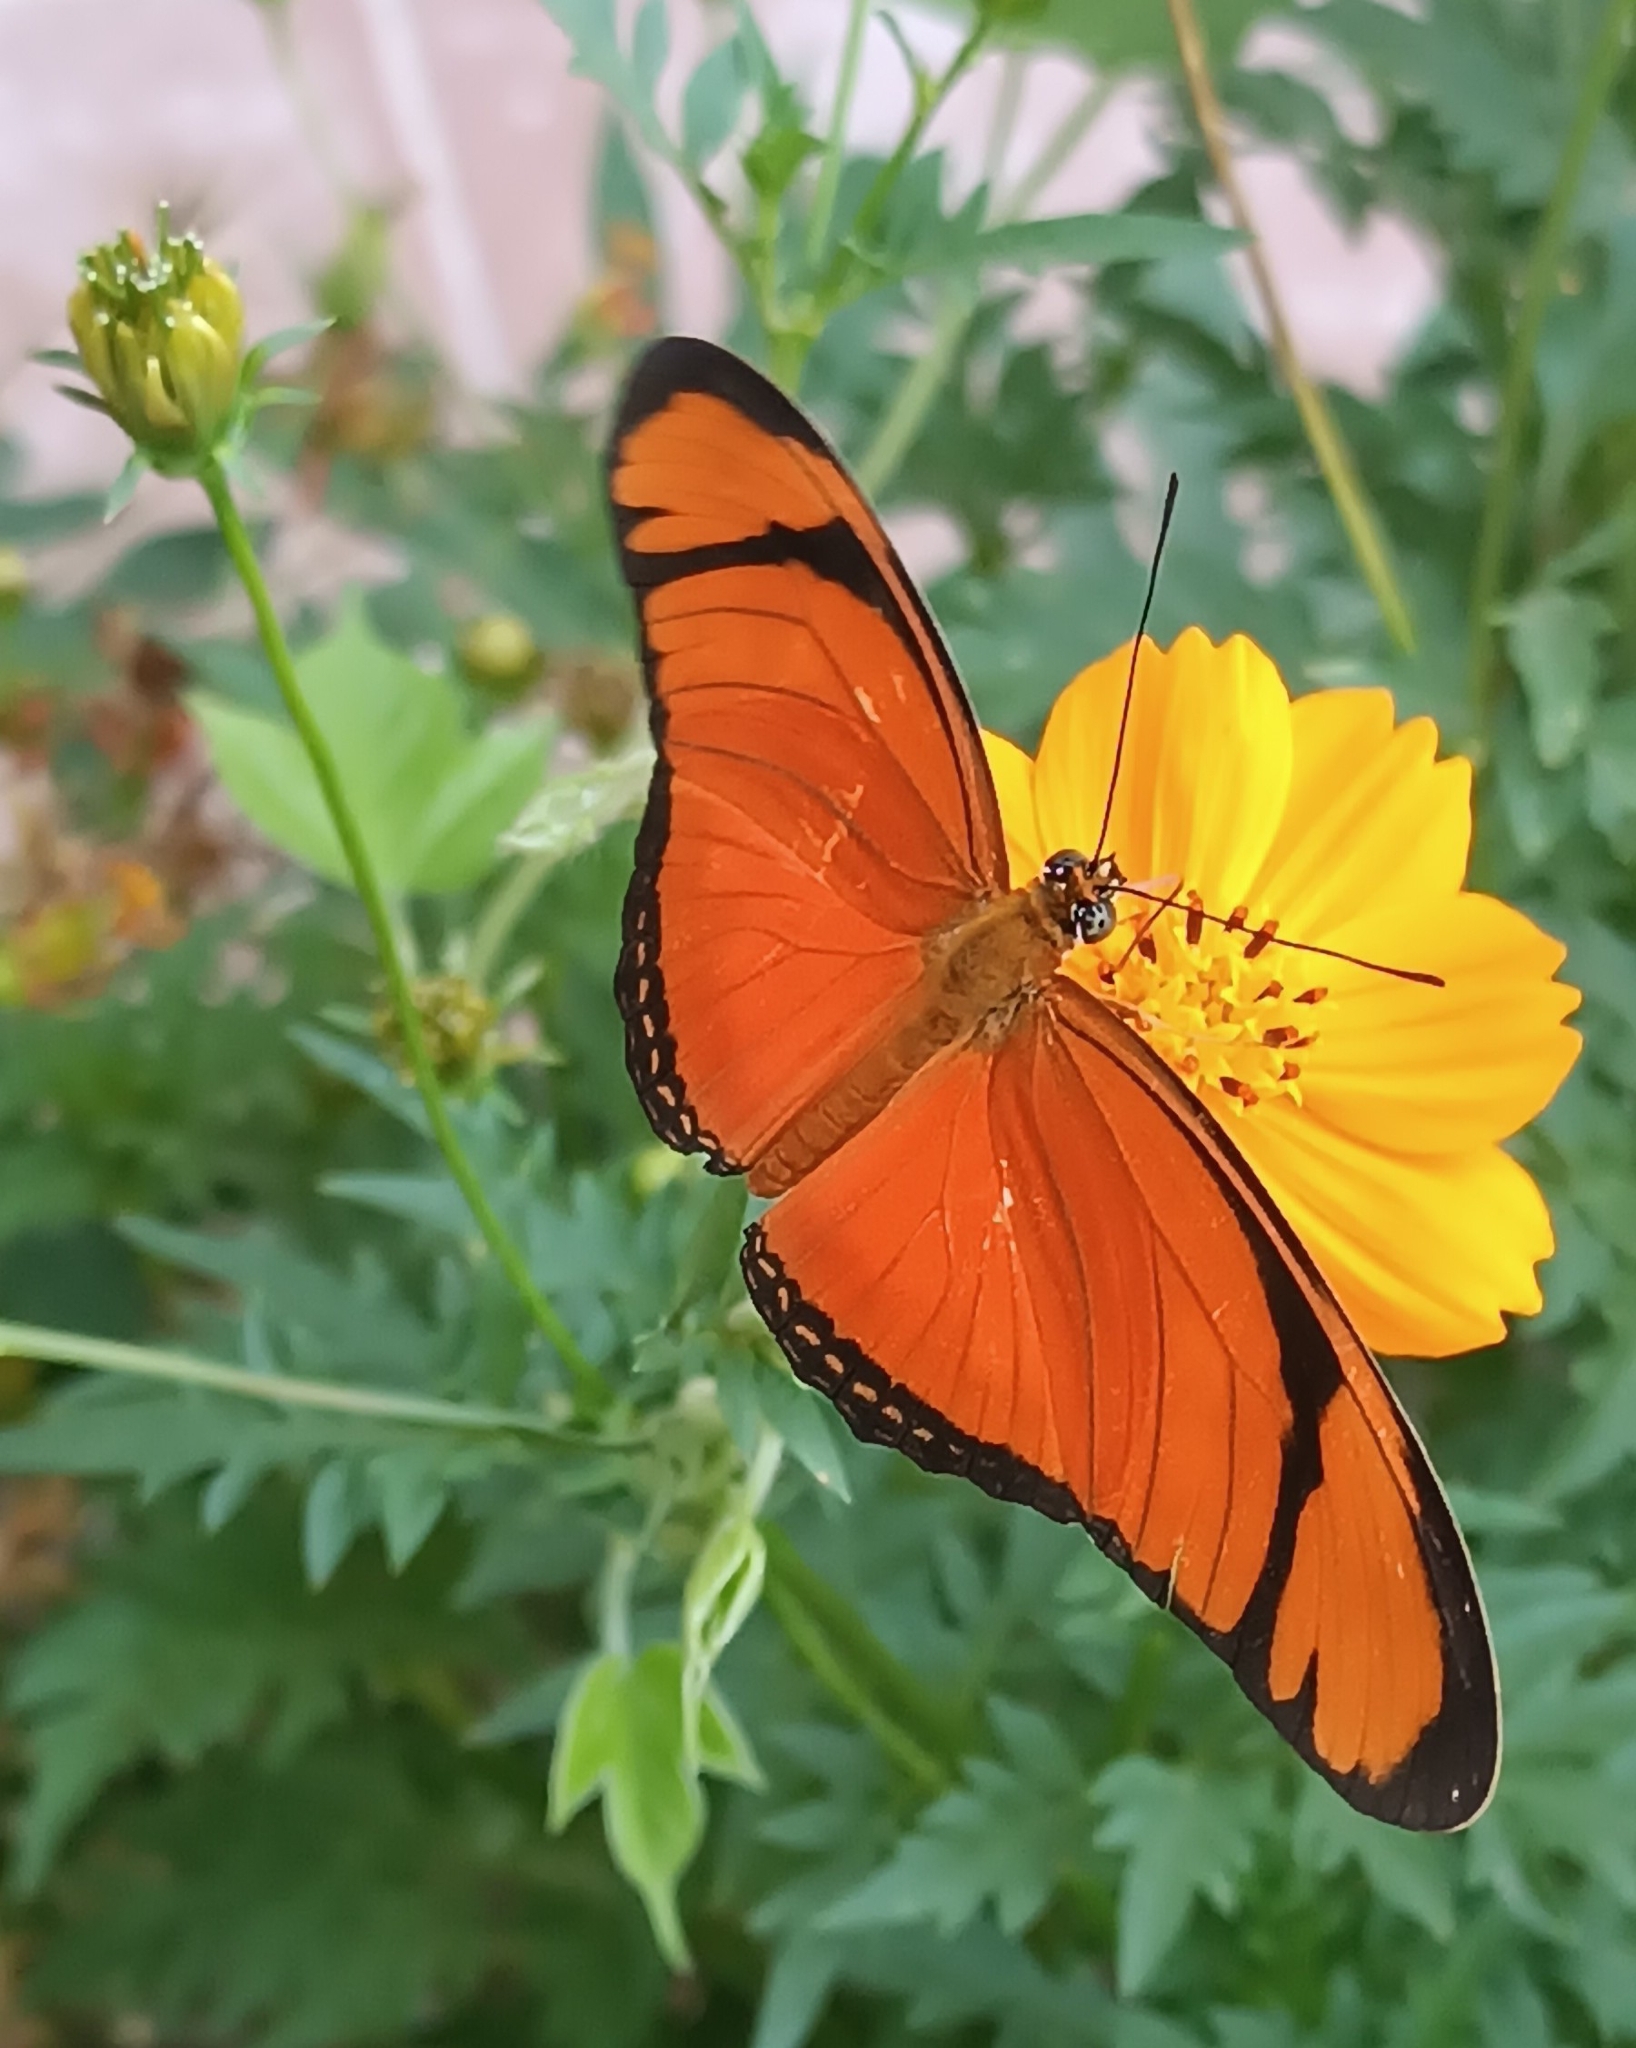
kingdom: Animalia
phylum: Arthropoda
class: Insecta
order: Lepidoptera
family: Nymphalidae
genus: Dryas
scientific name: Dryas iulia
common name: Flambeau
